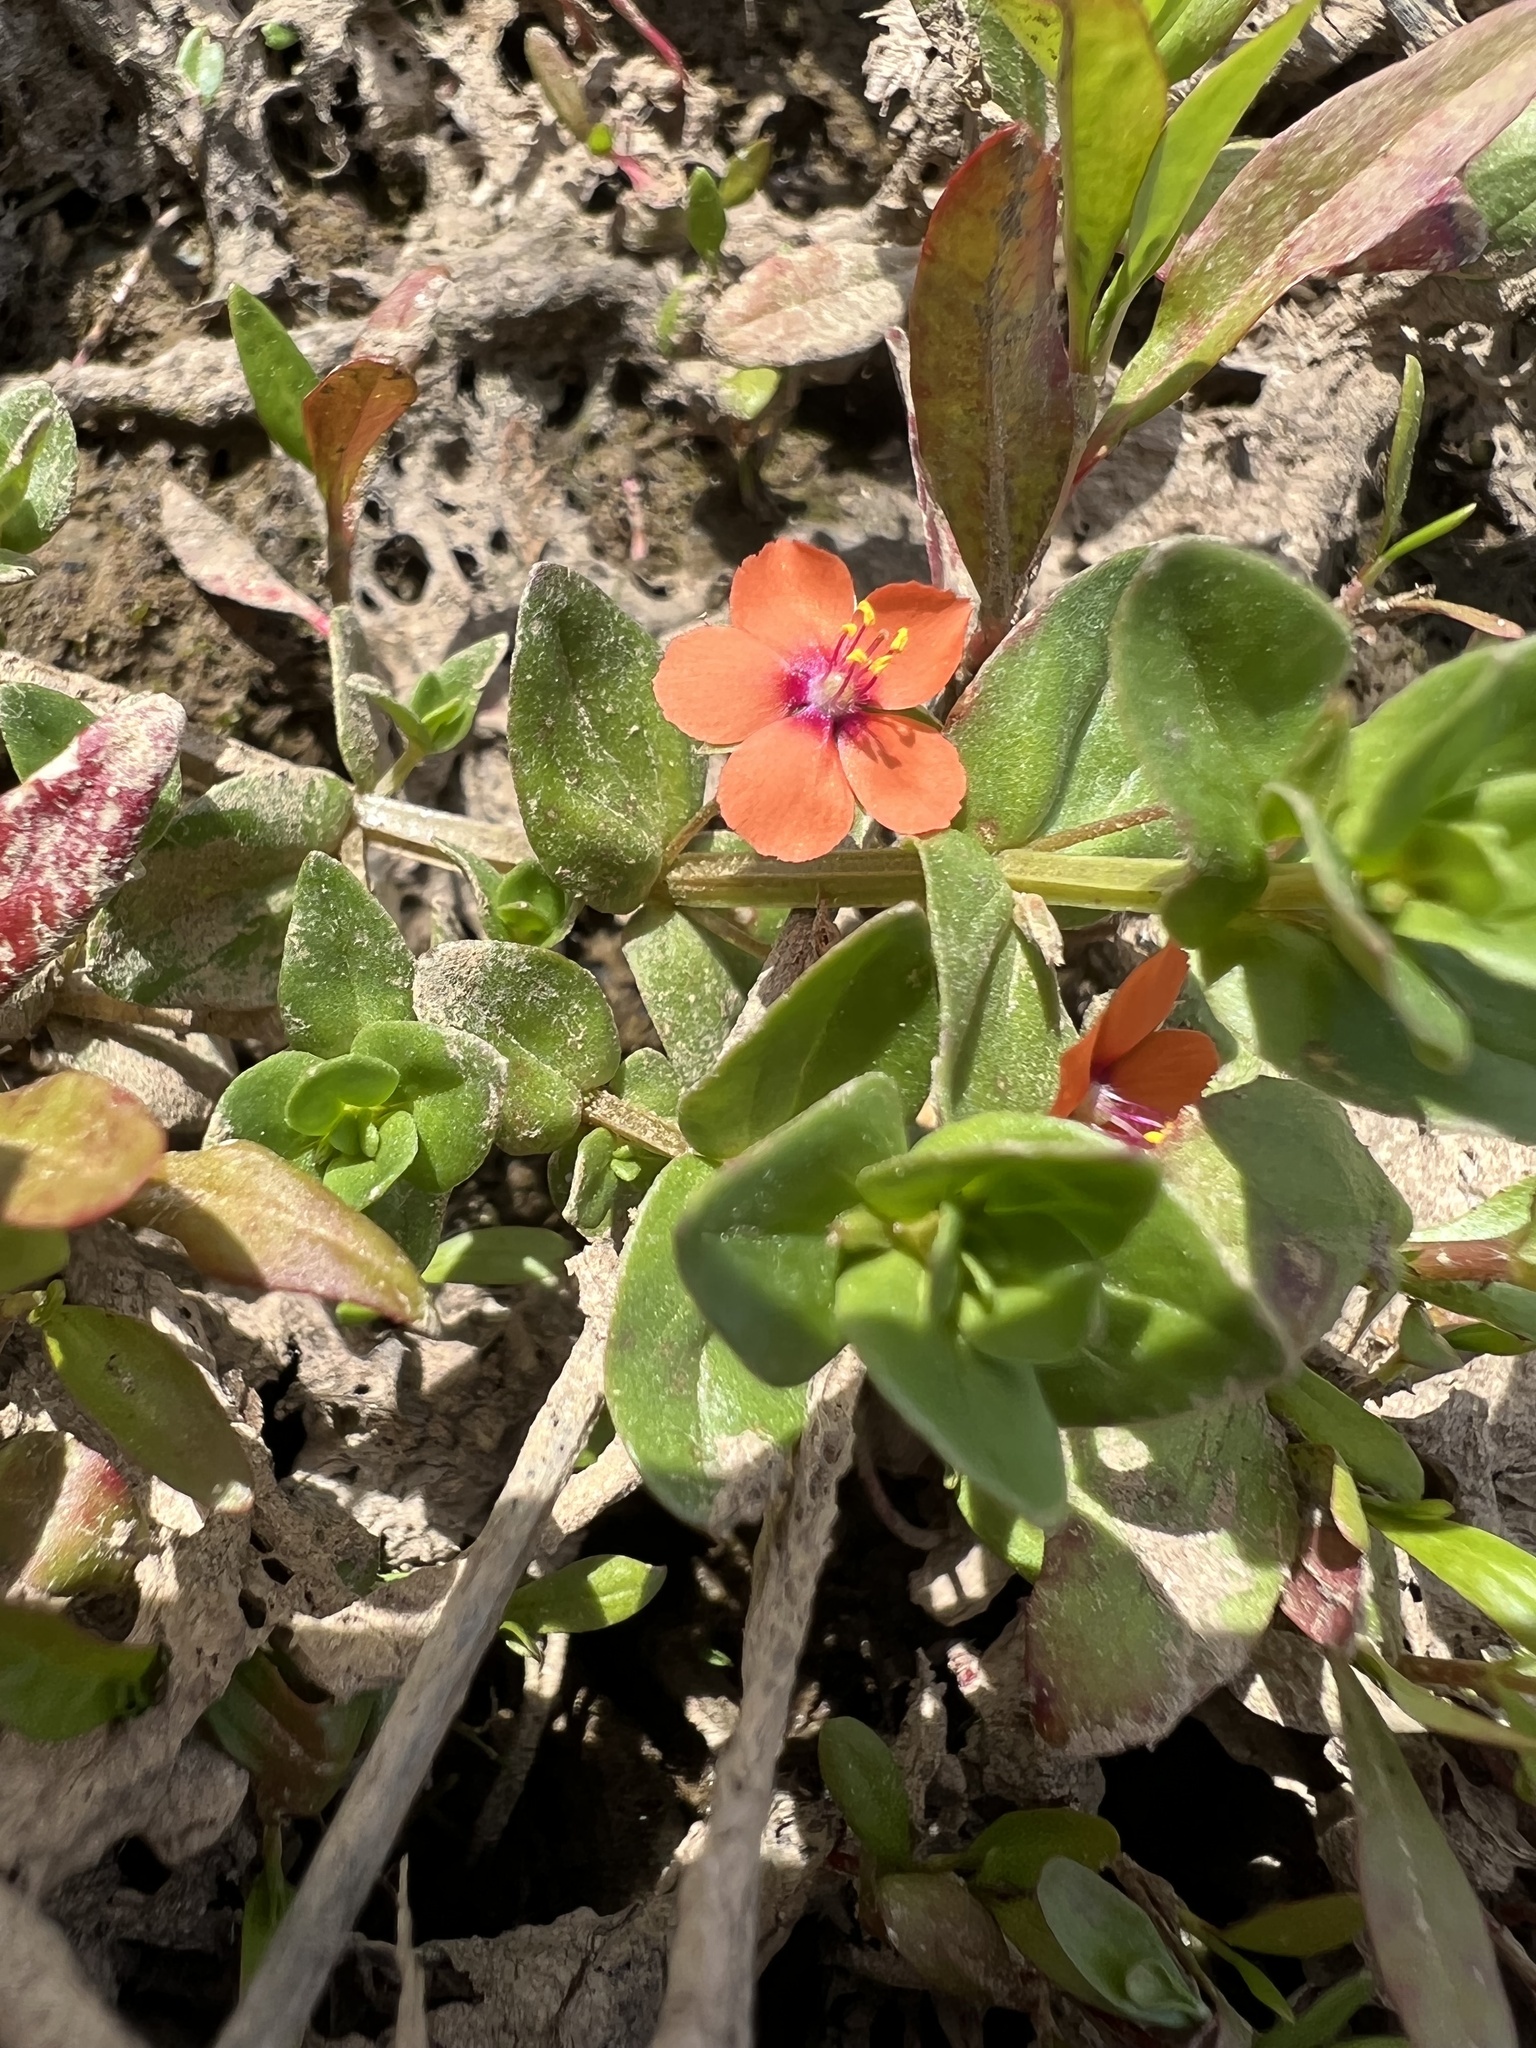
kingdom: Plantae
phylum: Tracheophyta
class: Magnoliopsida
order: Ericales
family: Primulaceae
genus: Lysimachia
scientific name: Lysimachia arvensis
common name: Scarlet pimpernel
